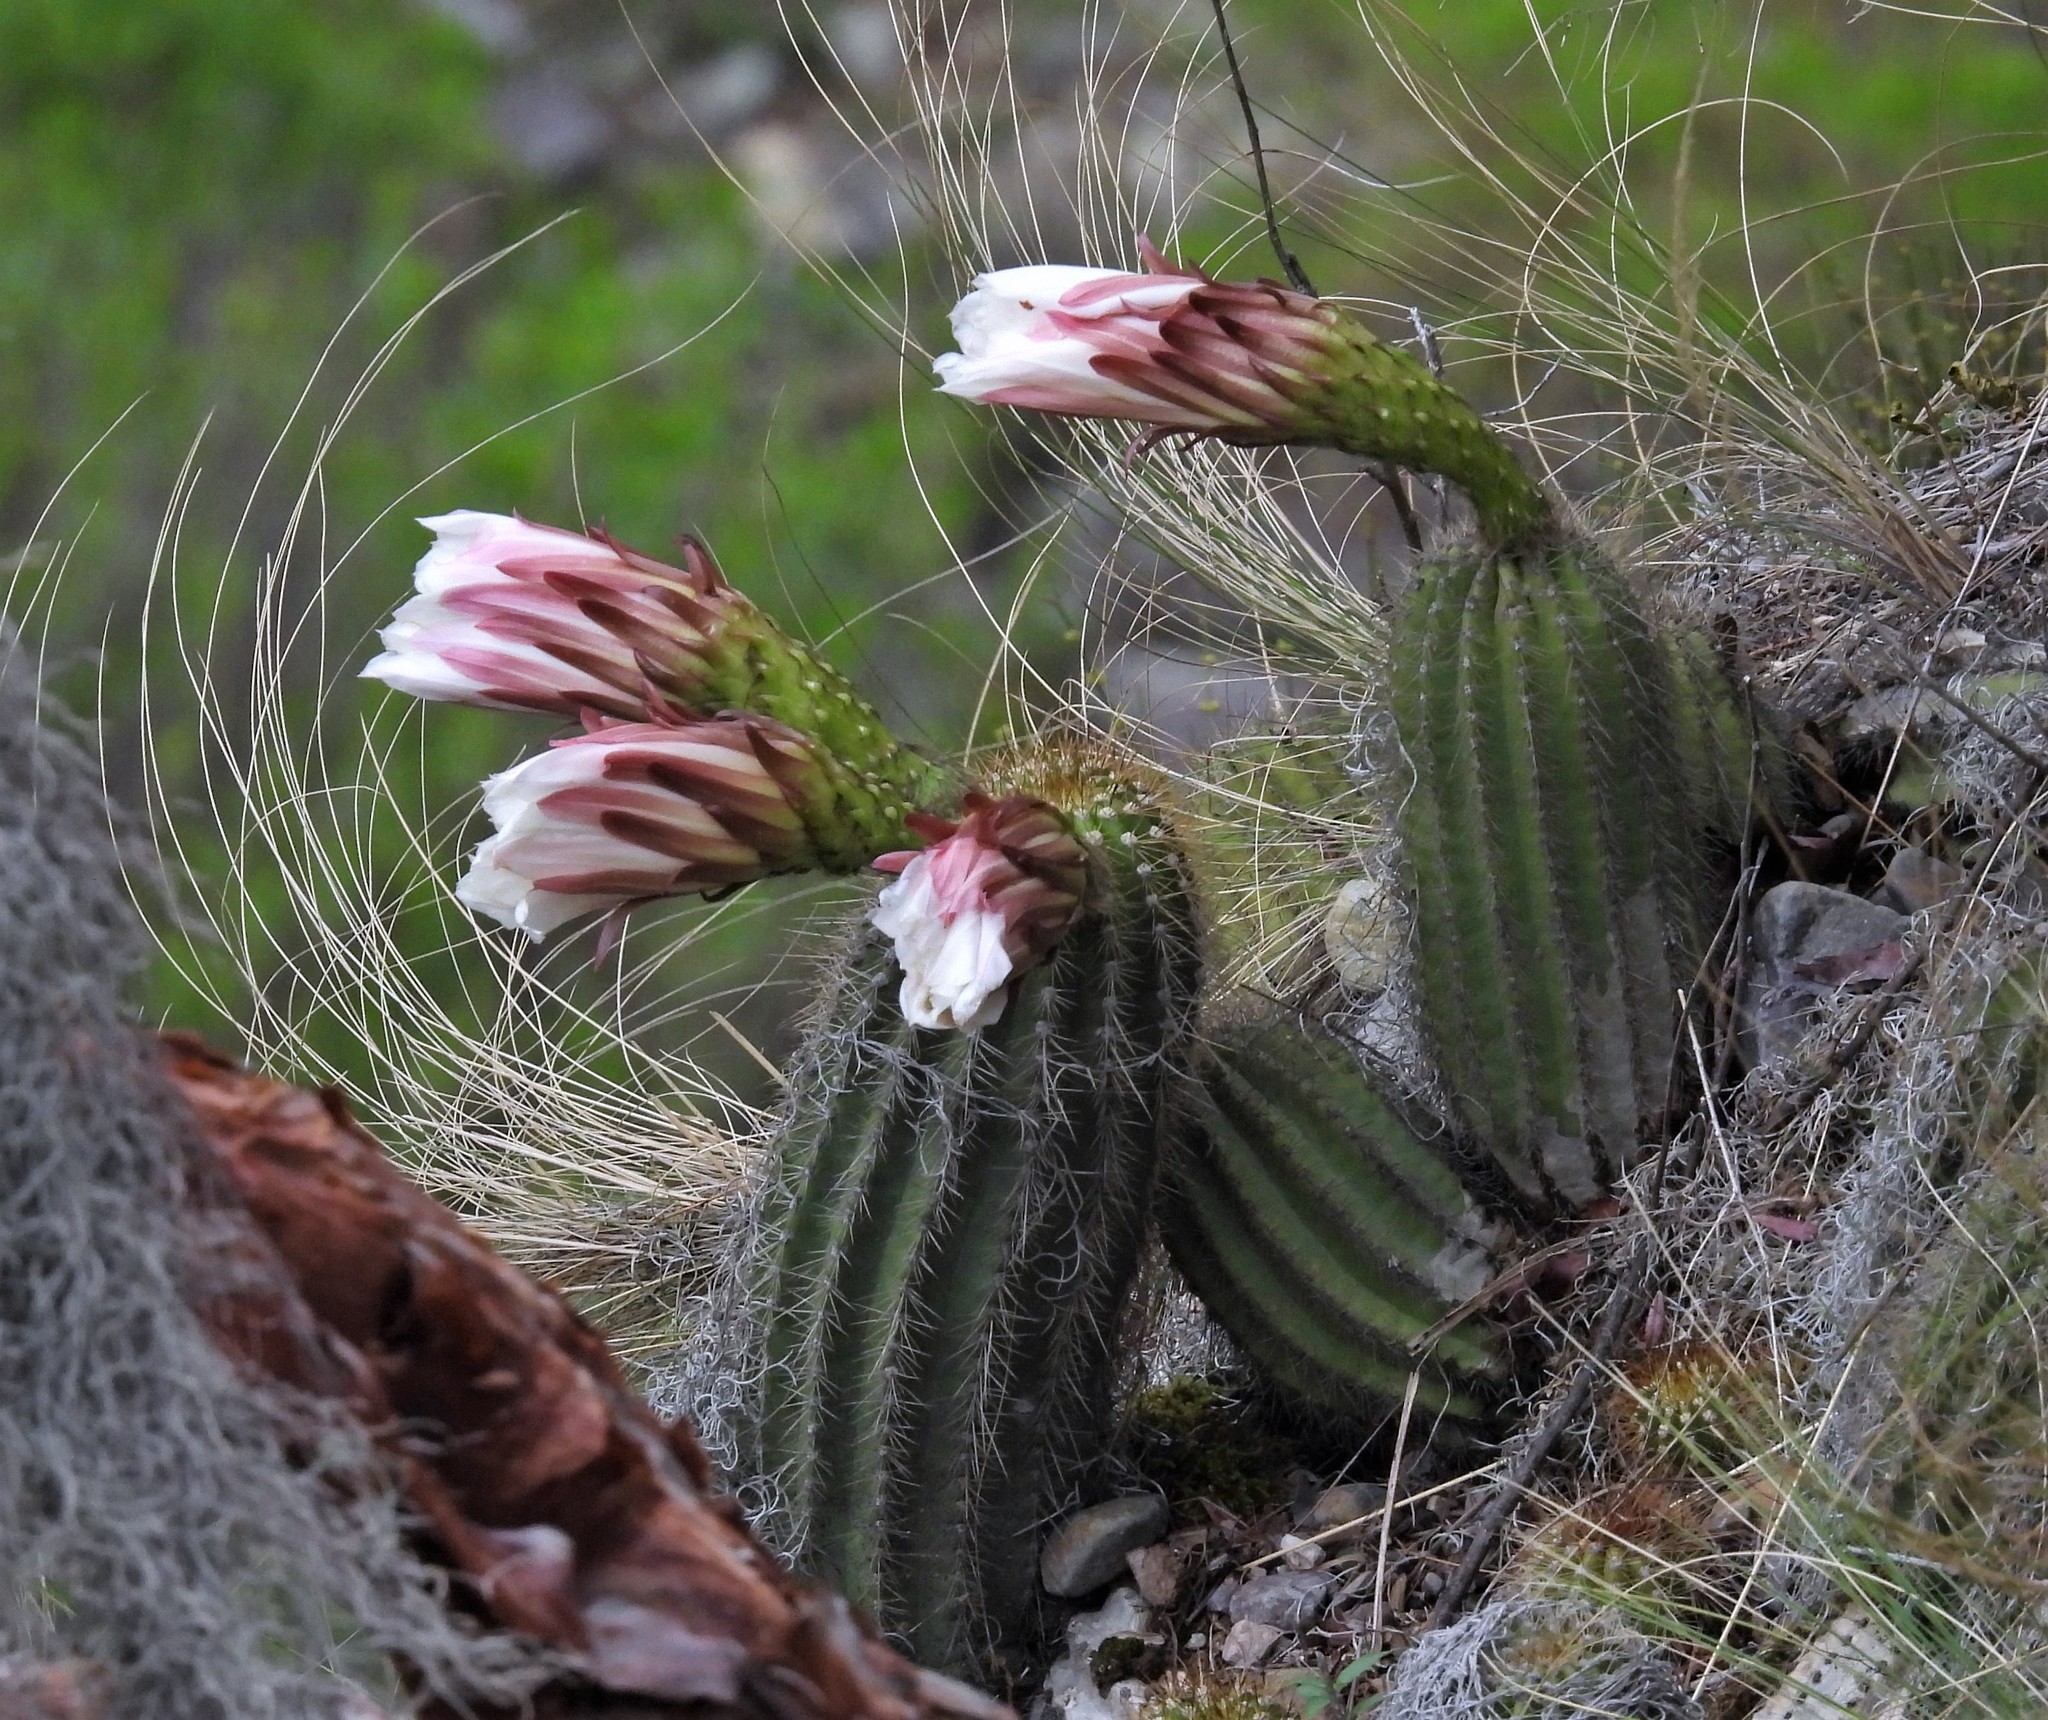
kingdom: Plantae
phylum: Tracheophyta
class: Magnoliopsida
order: Caryophyllales
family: Cactaceae
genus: Soehrensia
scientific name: Soehrensia schickendantzii
